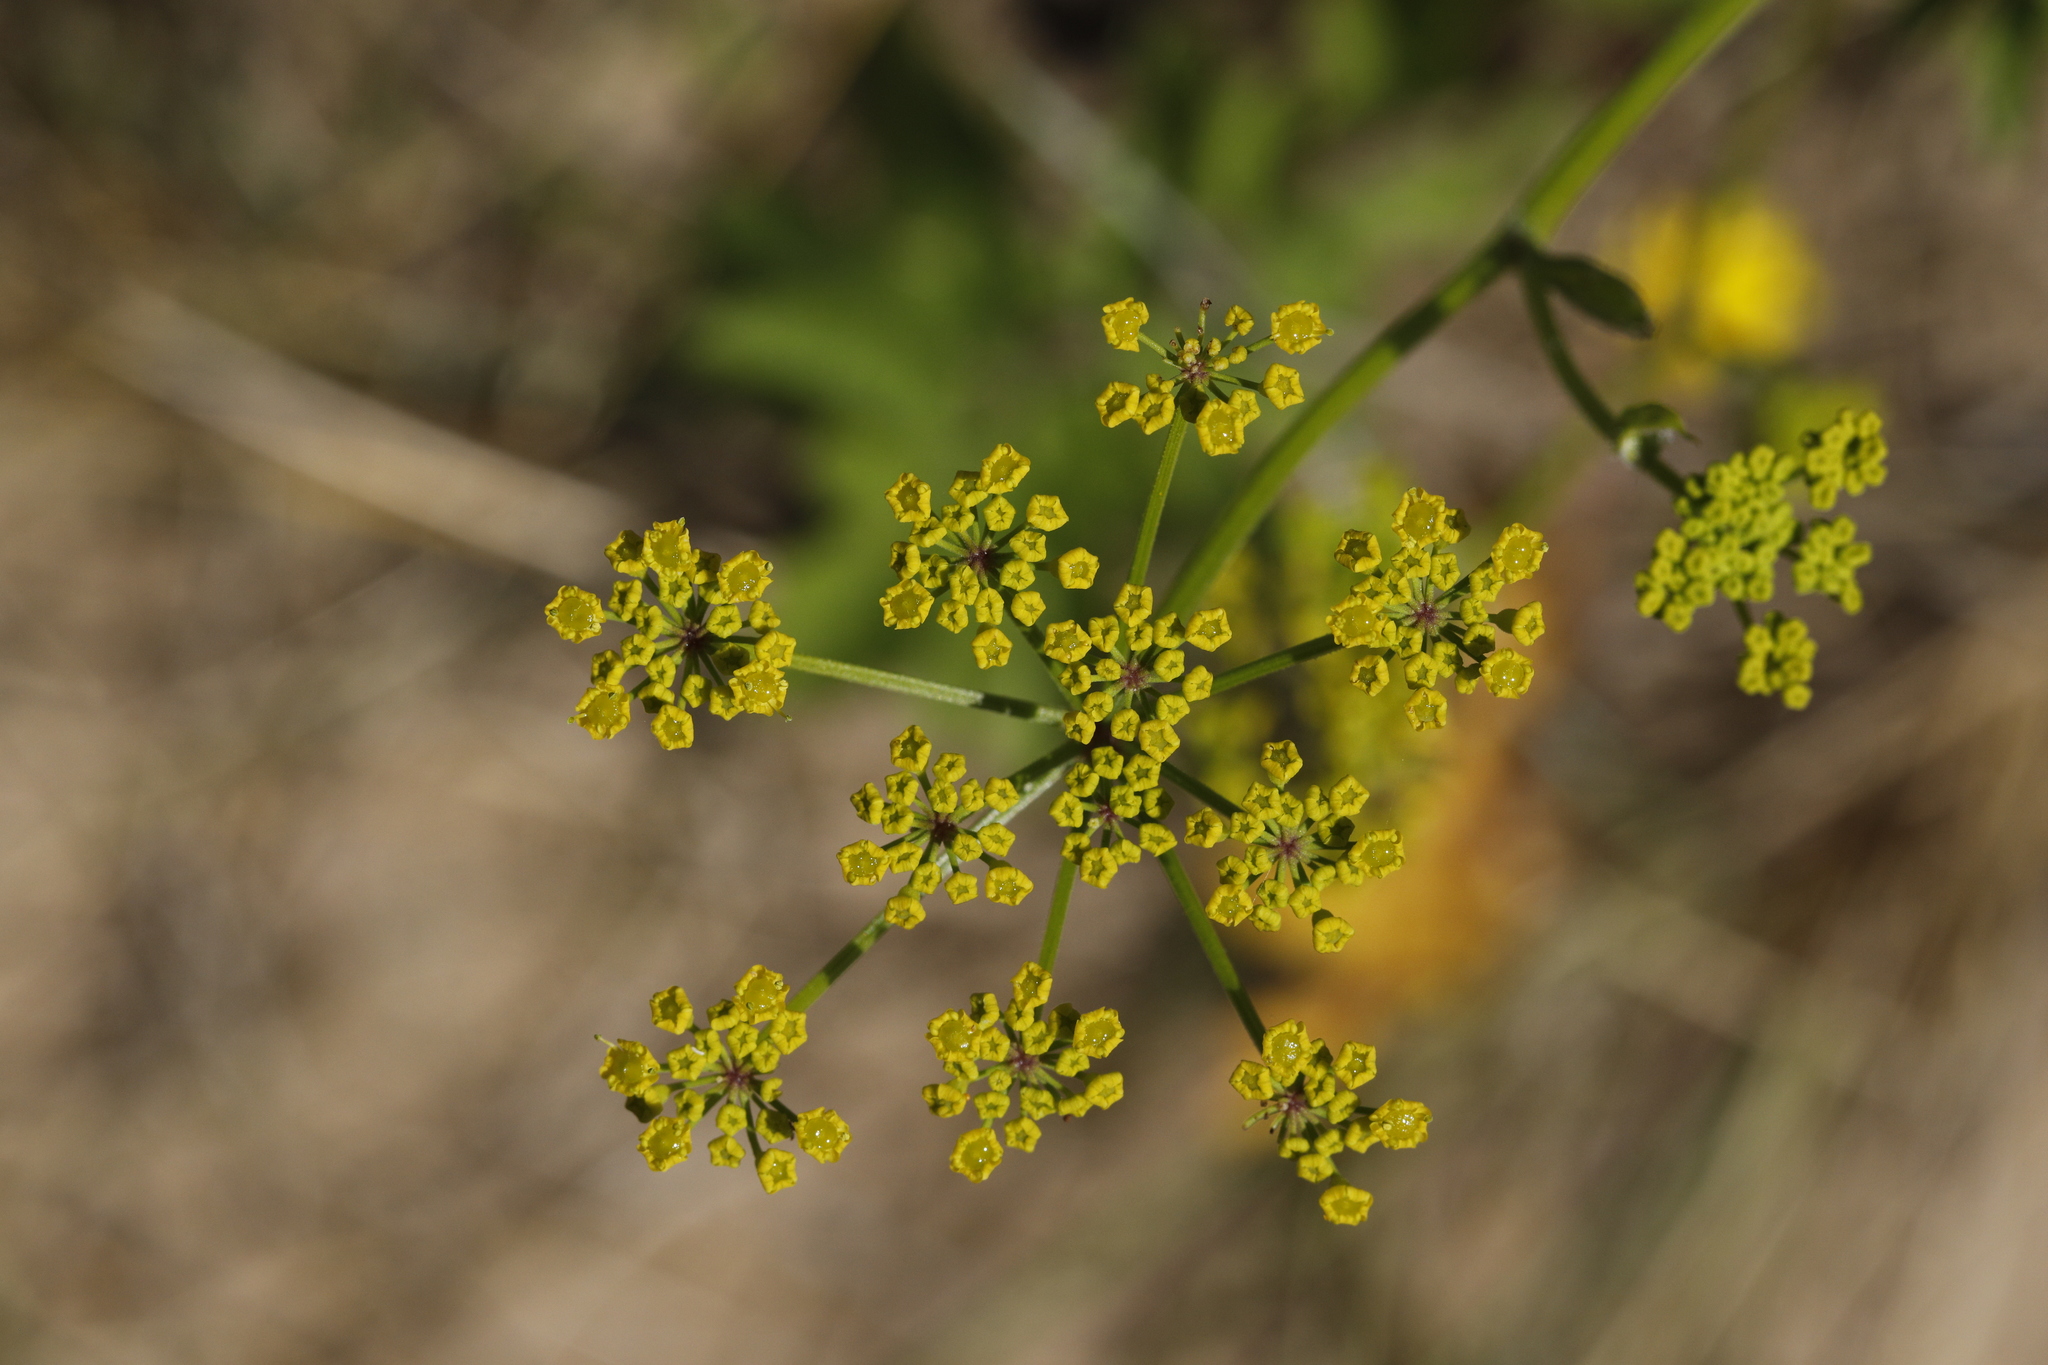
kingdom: Plantae
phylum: Tracheophyta
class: Magnoliopsida
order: Apiales
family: Apiaceae
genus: Pastinaca
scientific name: Pastinaca sativa
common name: Wild parsnip
